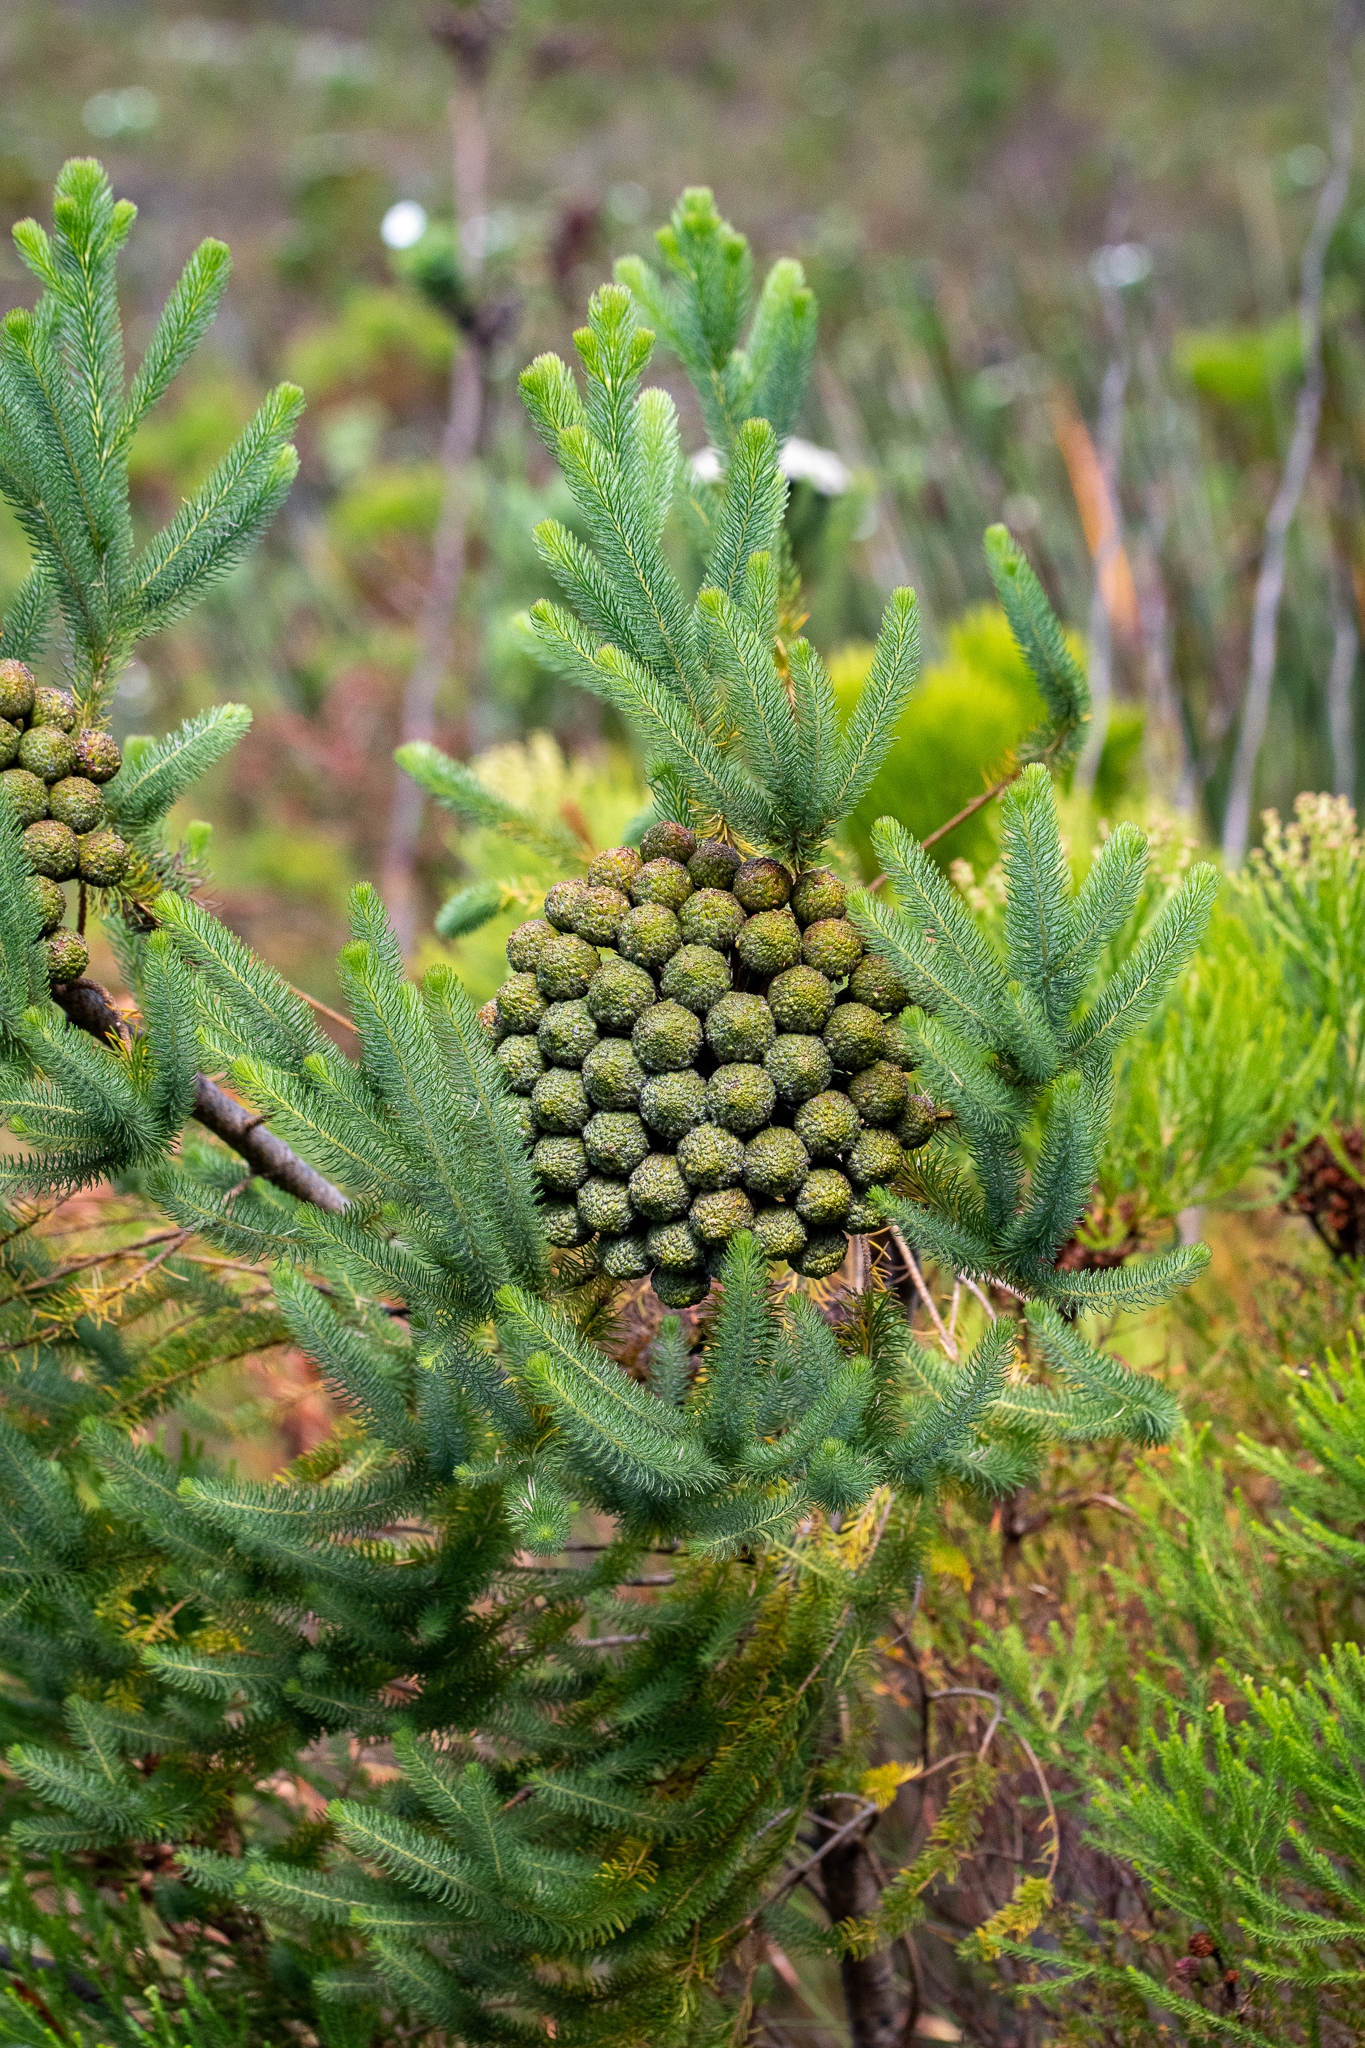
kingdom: Plantae
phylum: Tracheophyta
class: Magnoliopsida
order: Bruniales
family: Bruniaceae
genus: Berzelia
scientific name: Berzelia albiflora
